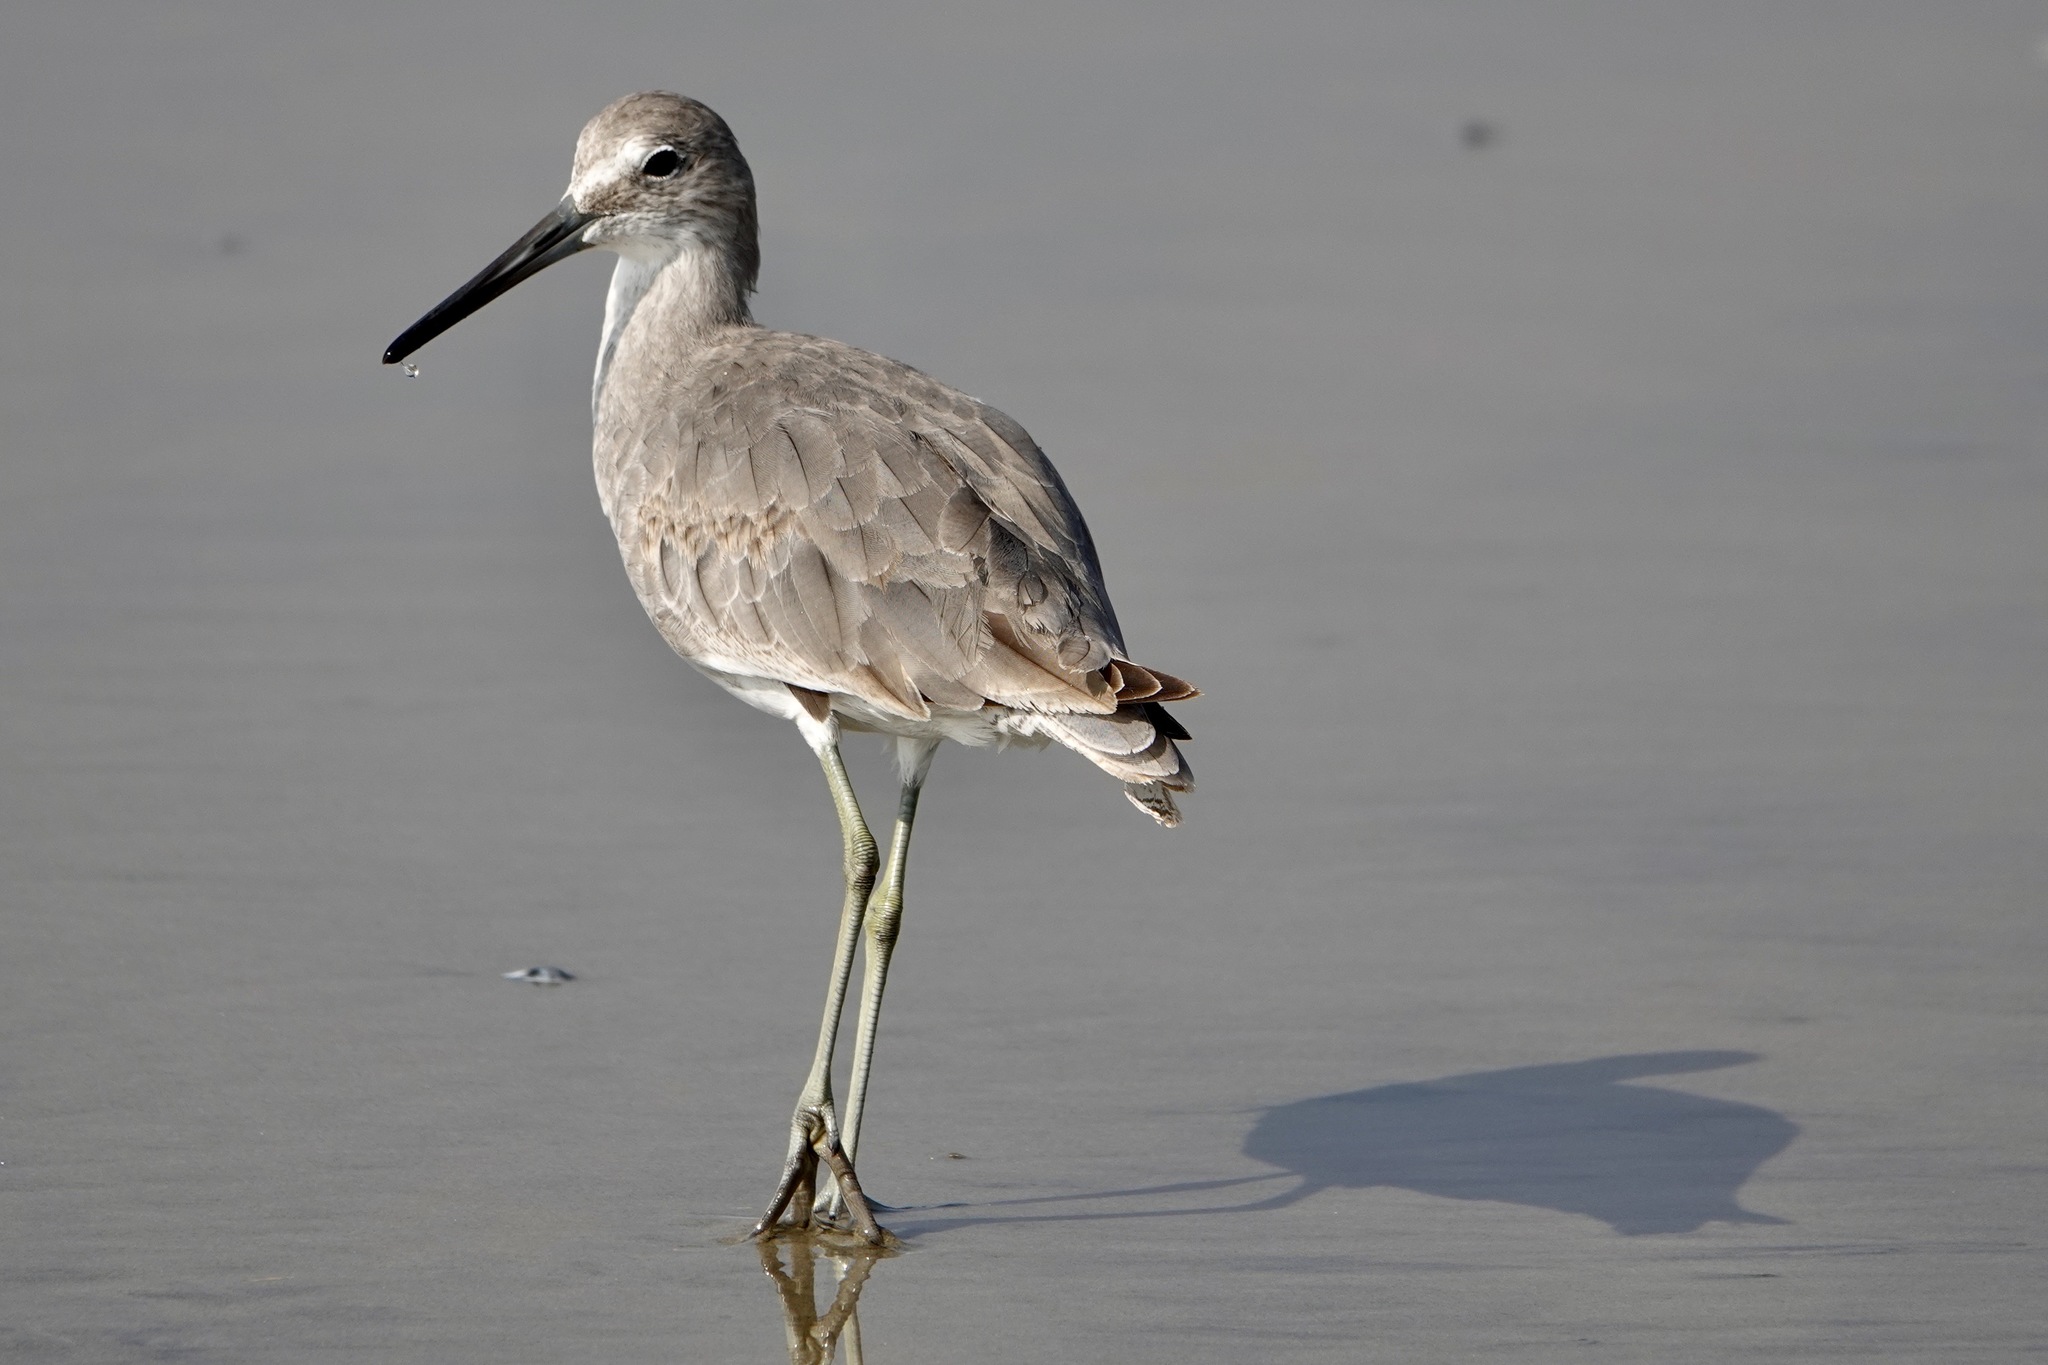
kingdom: Animalia
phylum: Chordata
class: Aves
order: Charadriiformes
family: Scolopacidae
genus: Tringa
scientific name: Tringa semipalmata
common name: Willet
